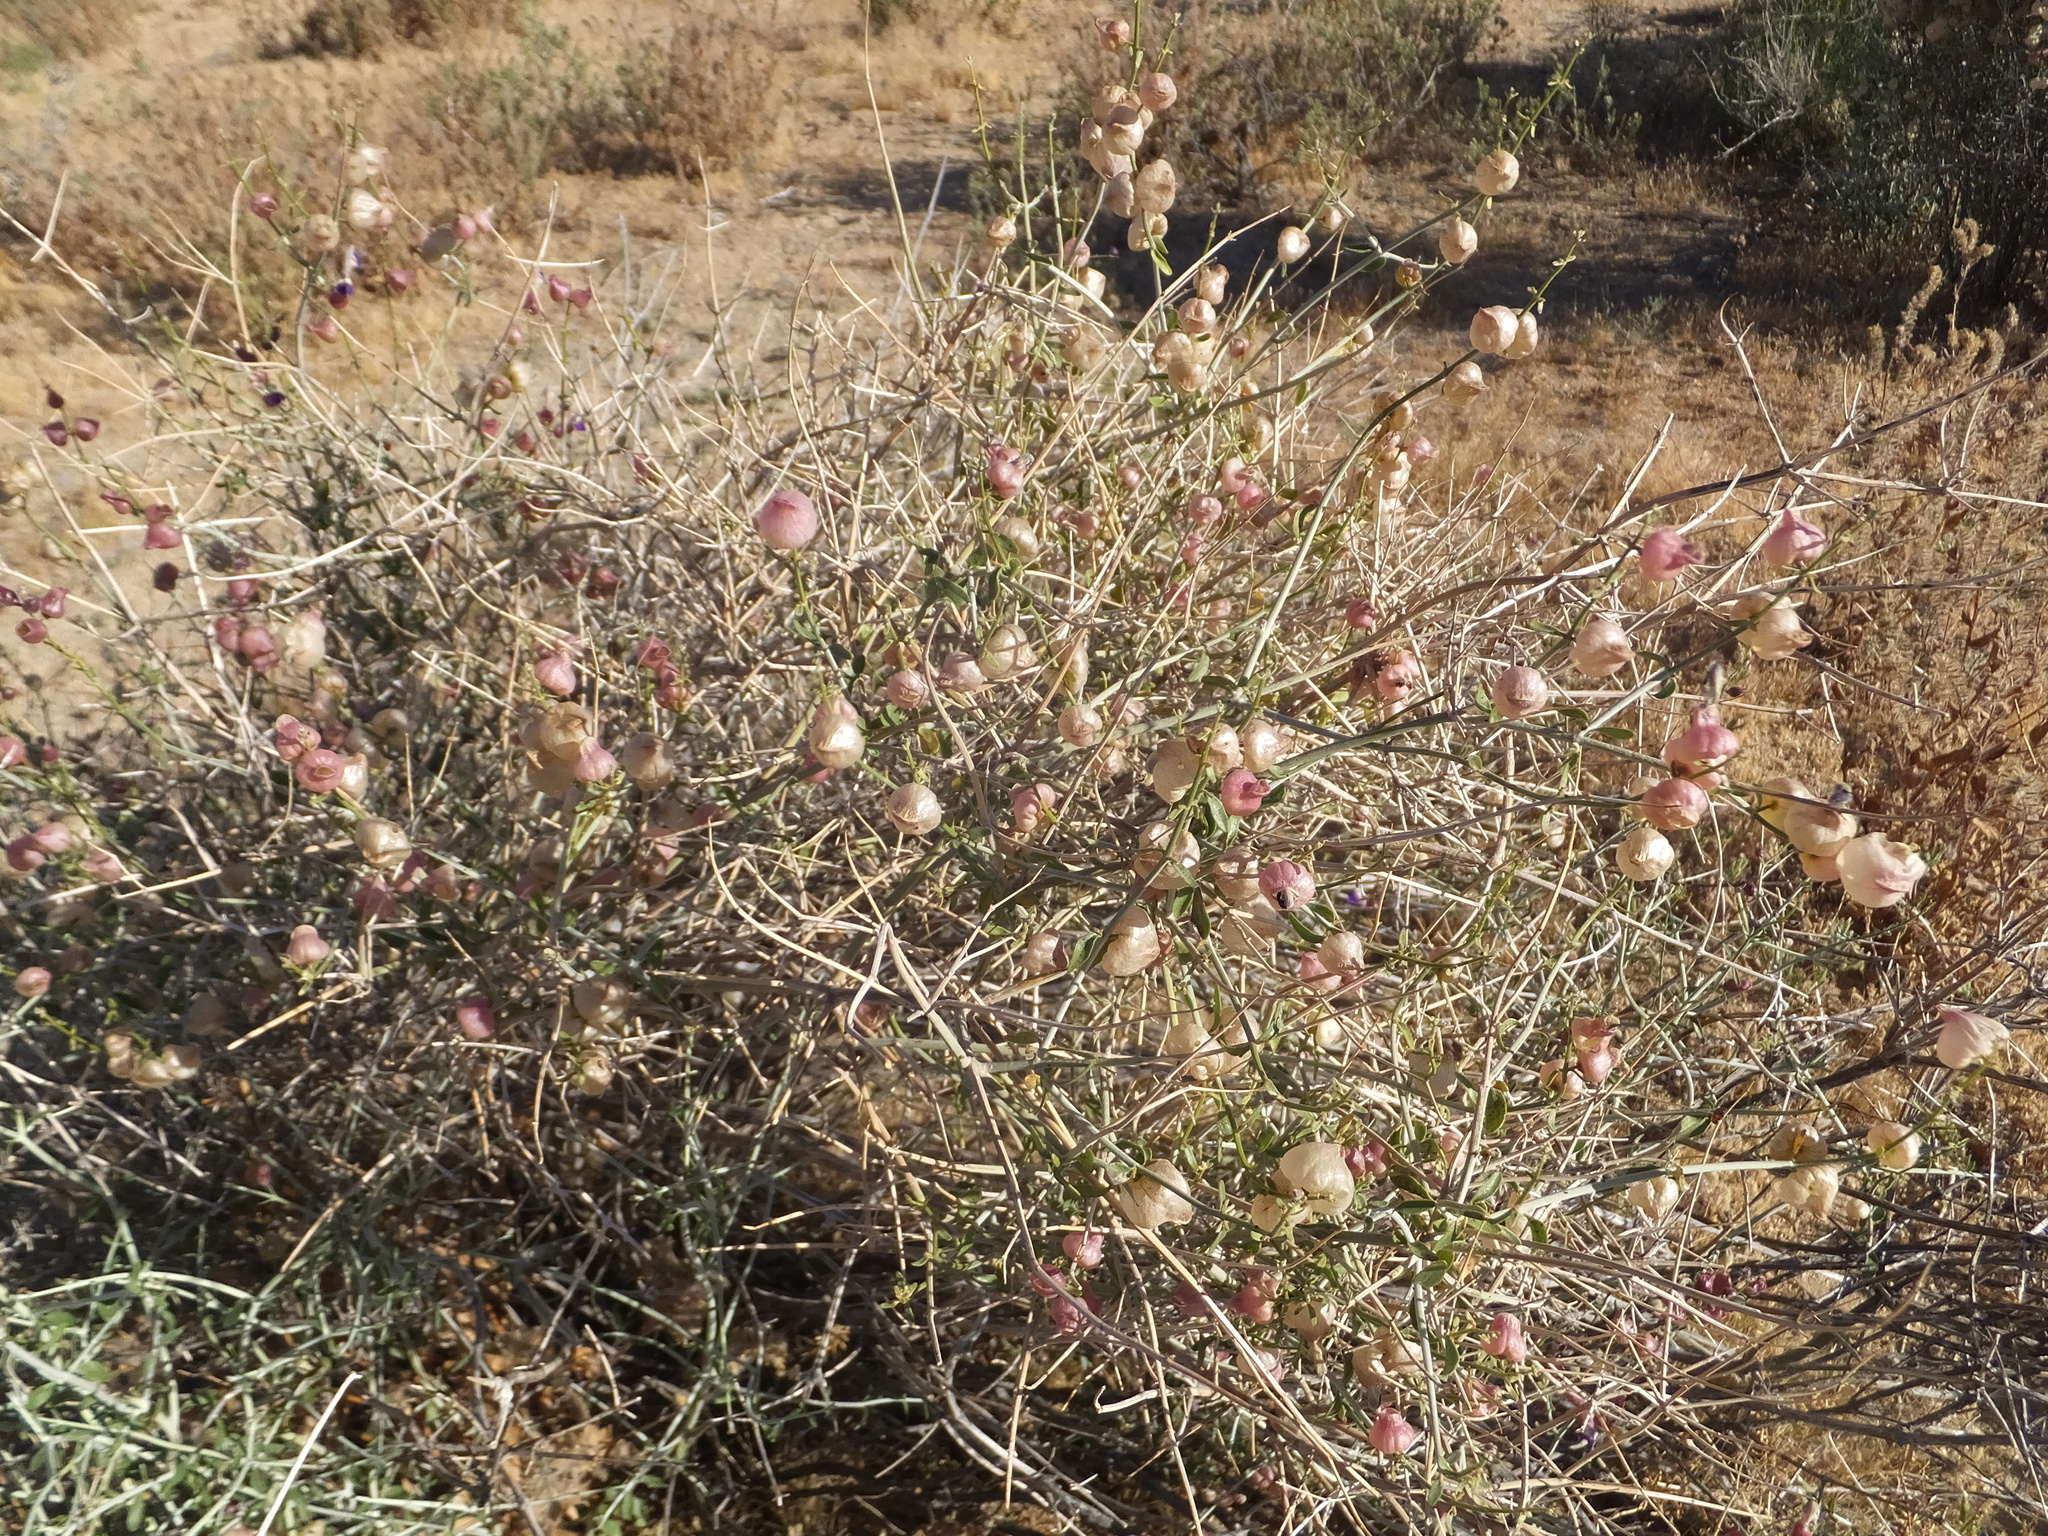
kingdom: Plantae
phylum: Tracheophyta
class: Magnoliopsida
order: Lamiales
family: Lamiaceae
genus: Scutellaria
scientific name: Scutellaria mexicana
